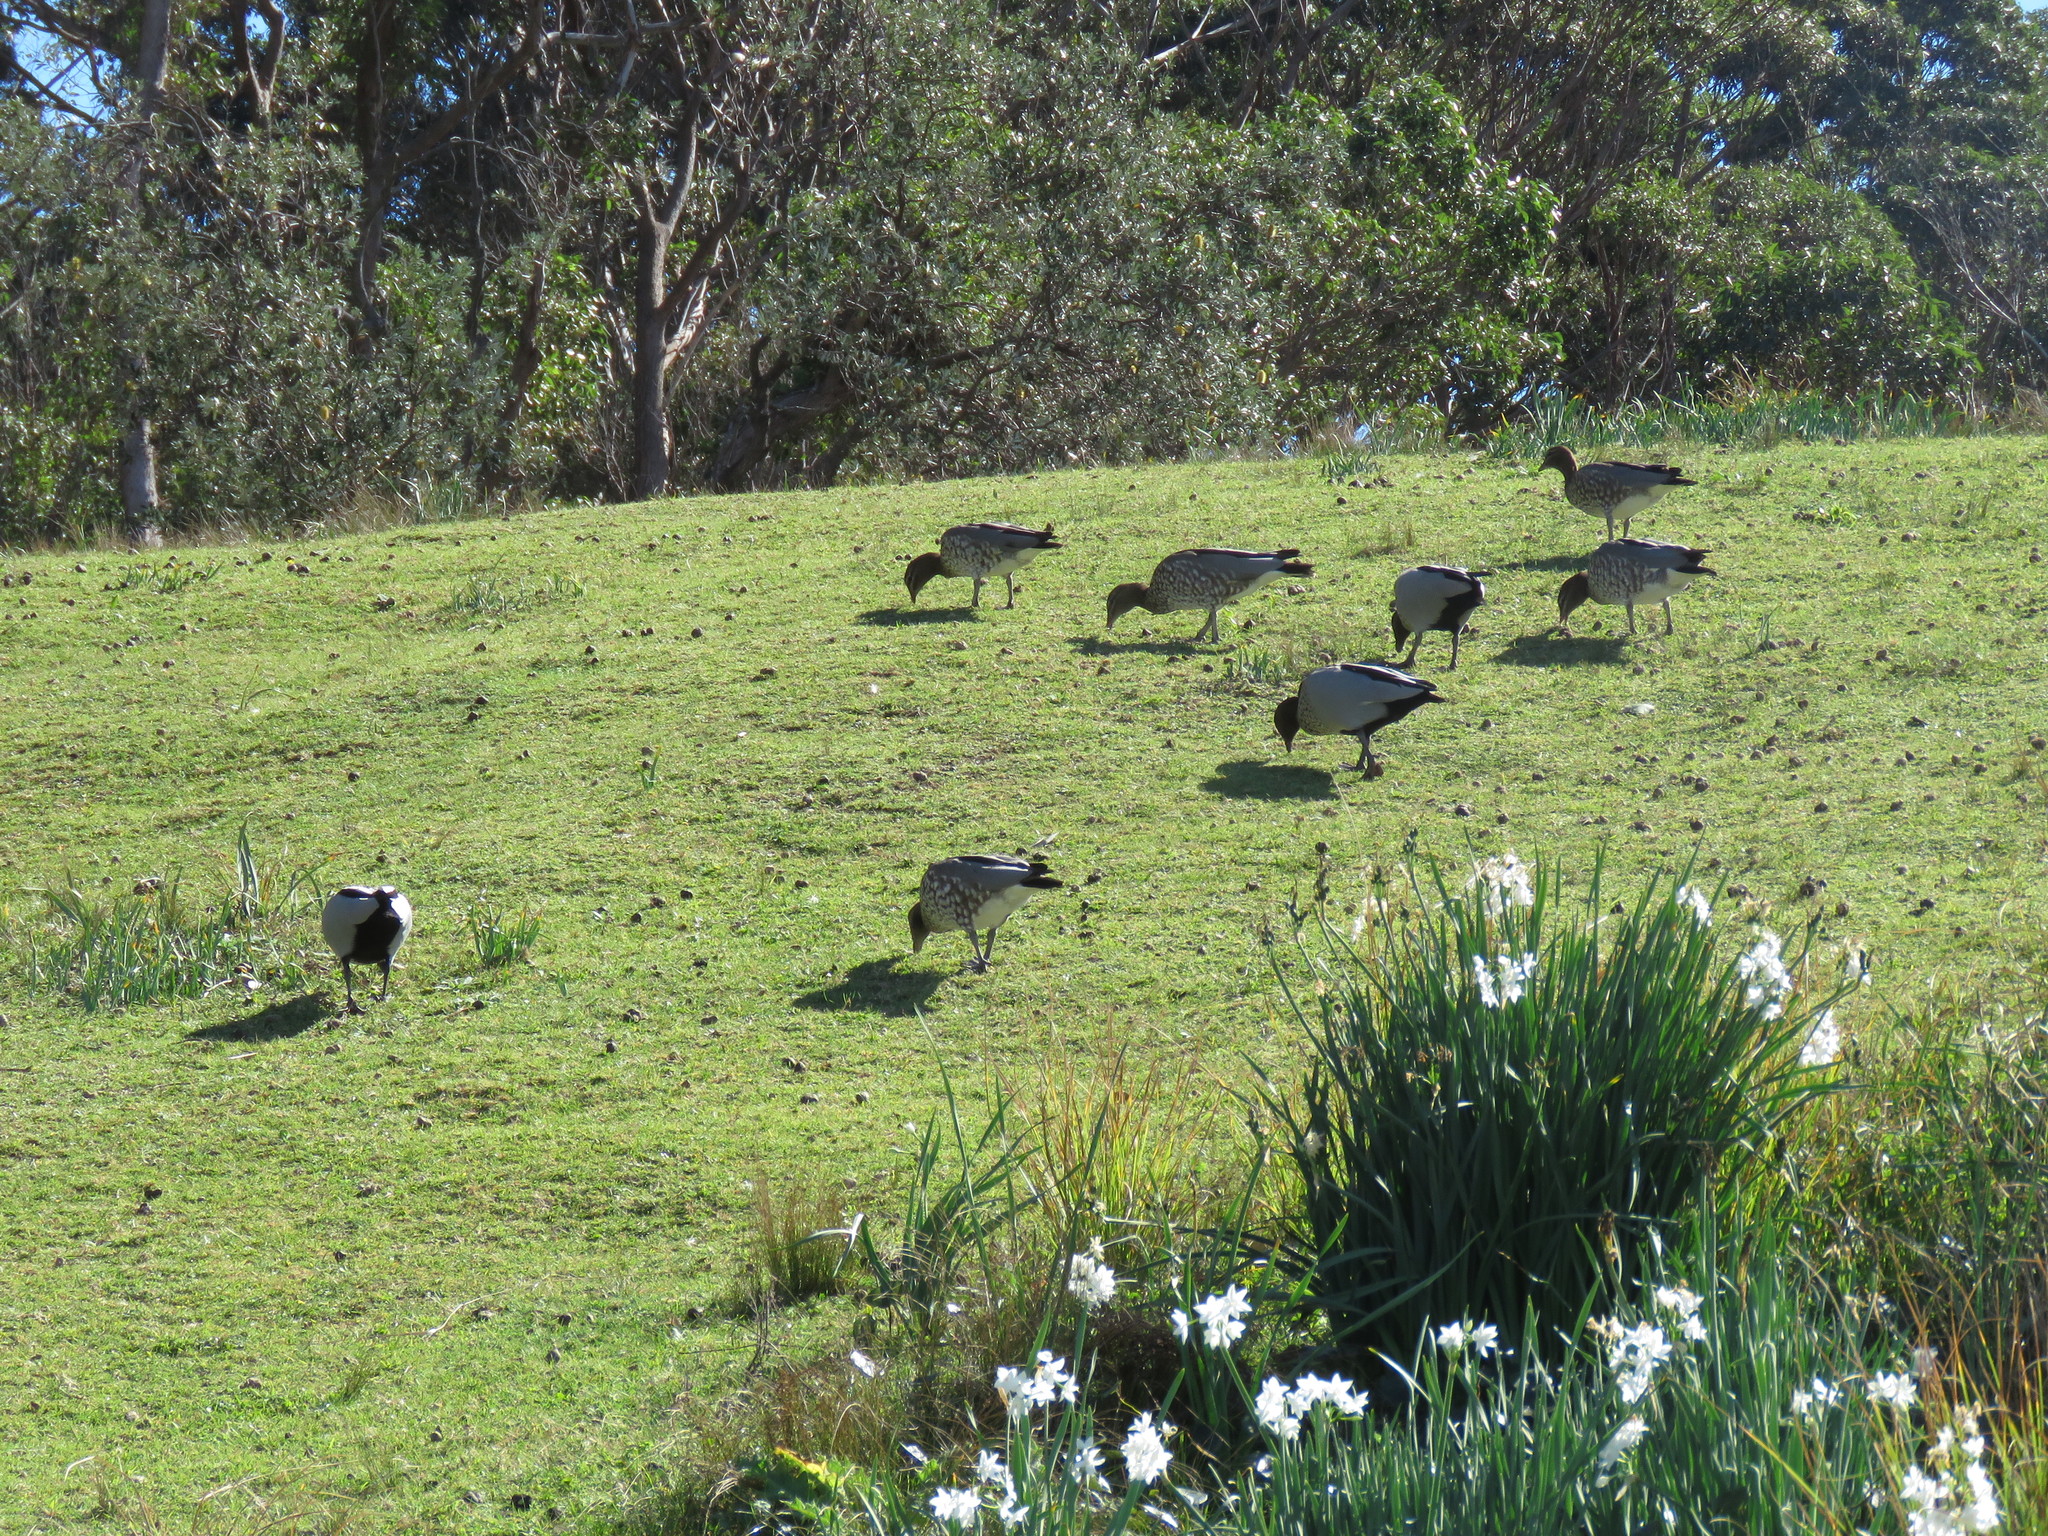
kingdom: Animalia
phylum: Chordata
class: Aves
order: Anseriformes
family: Anatidae
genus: Chenonetta
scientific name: Chenonetta jubata
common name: Maned duck
